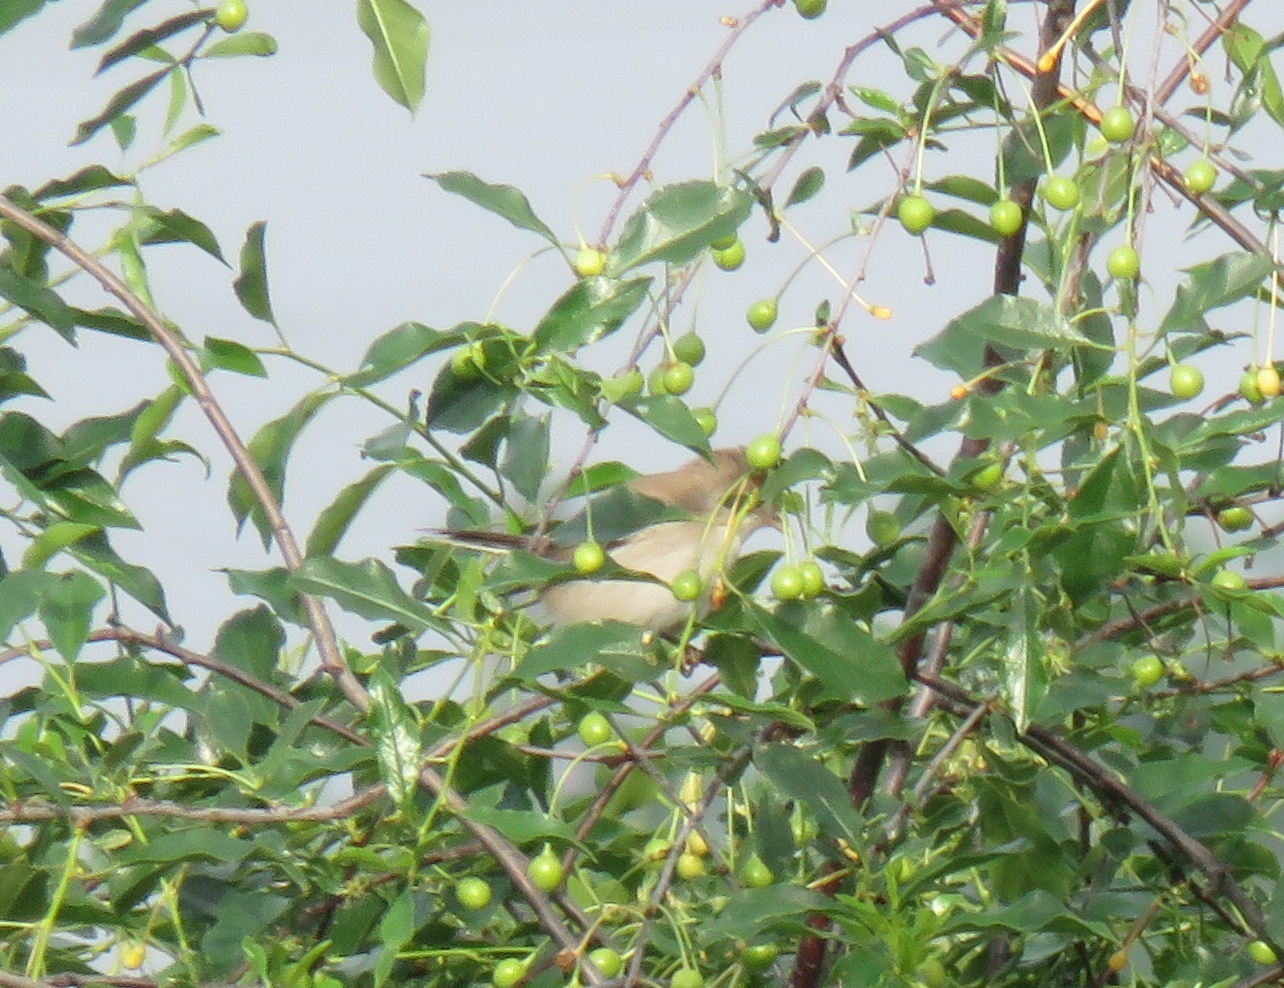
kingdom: Animalia
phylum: Chordata
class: Aves
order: Passeriformes
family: Sylviidae
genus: Sylvia
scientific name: Sylvia communis
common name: Common whitethroat
